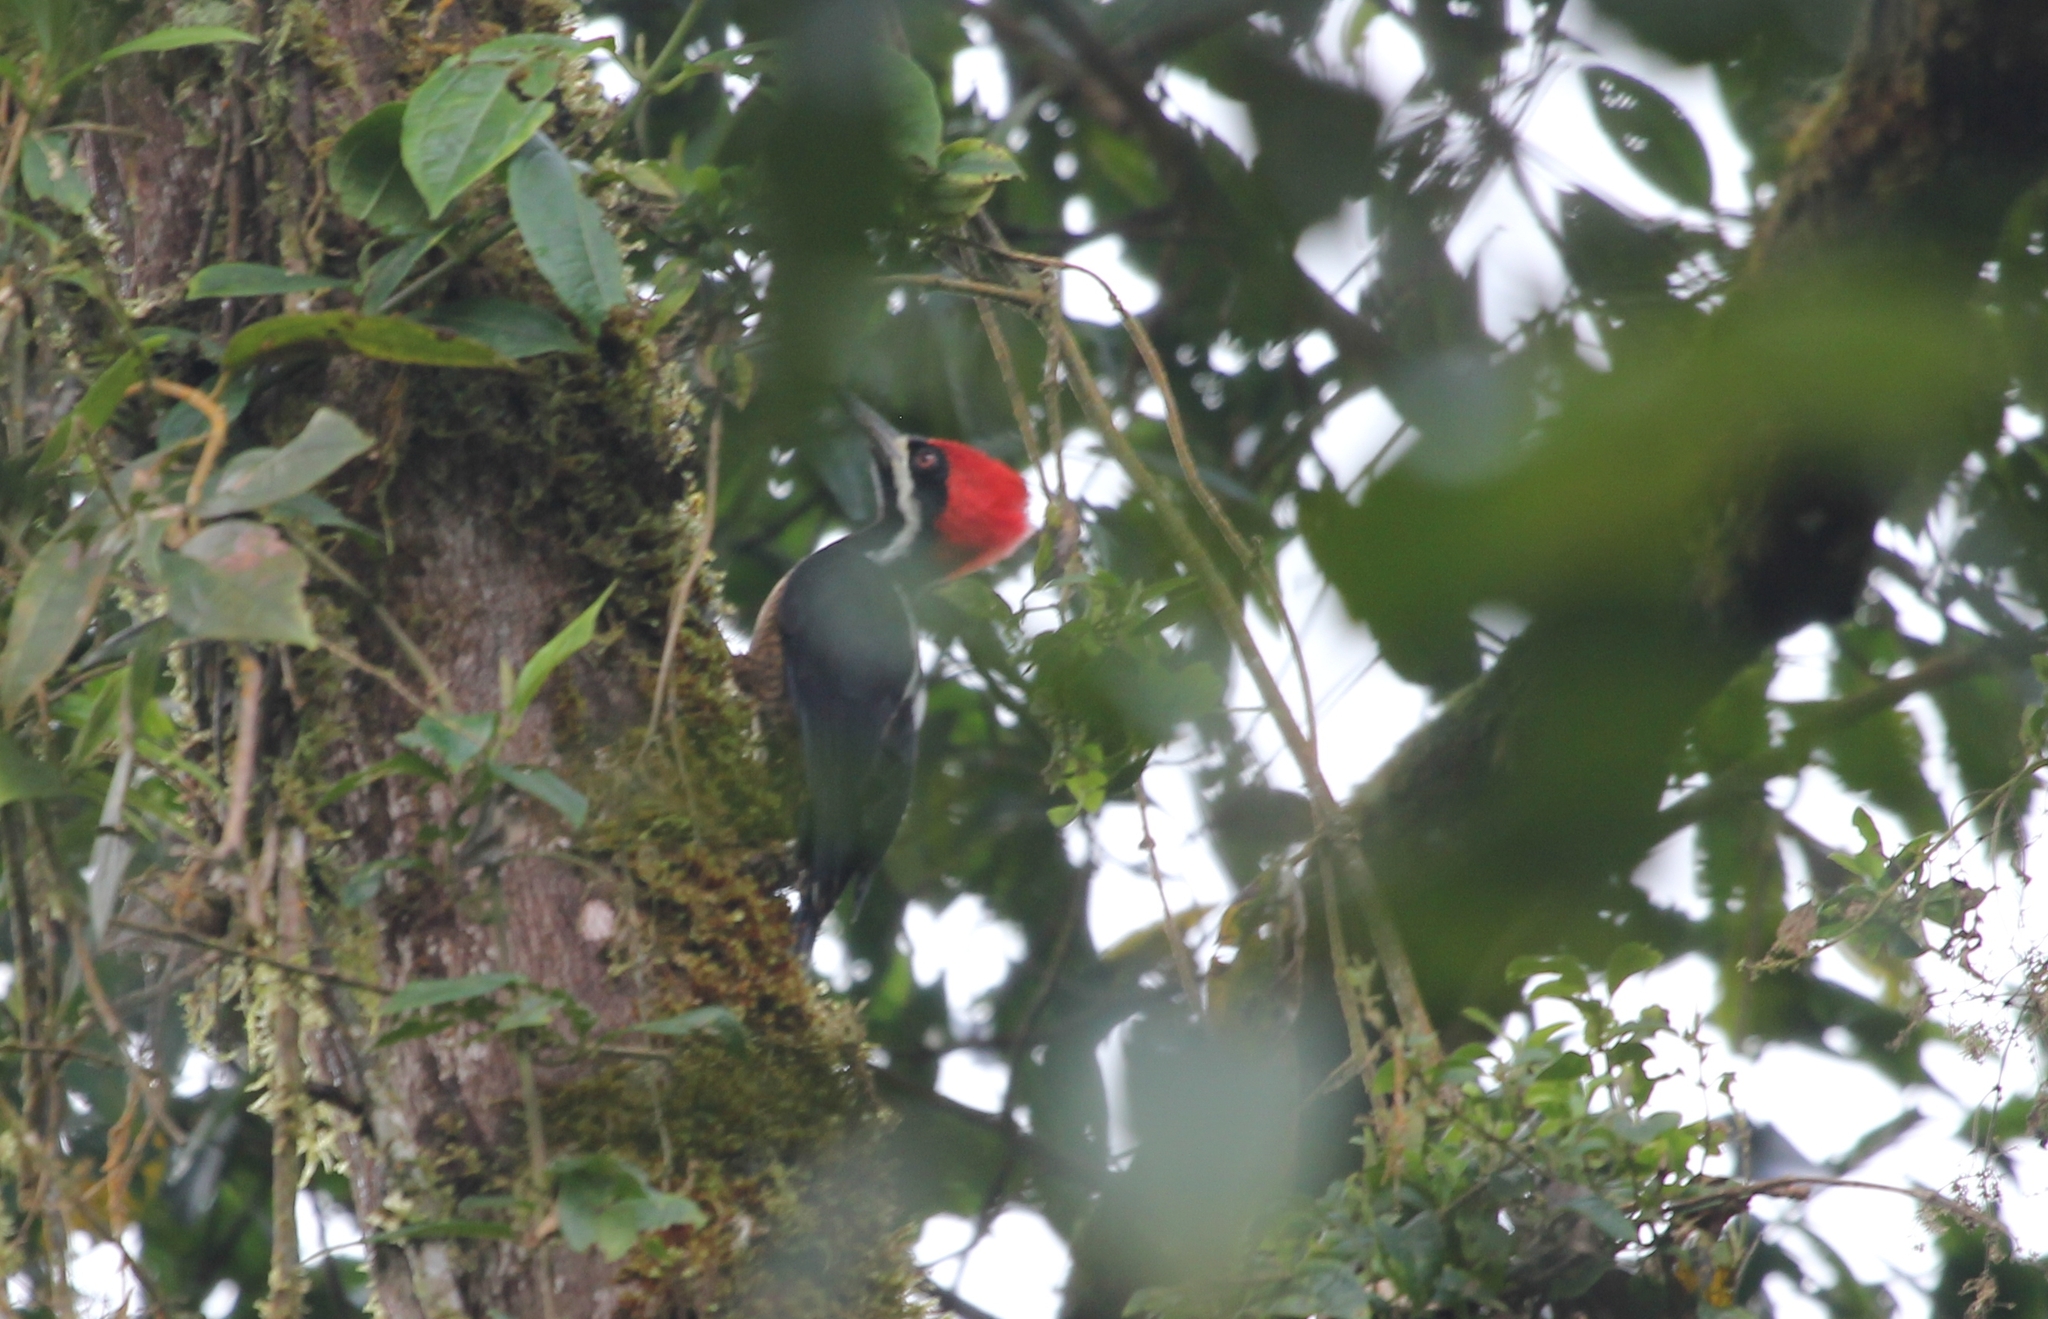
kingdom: Animalia
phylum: Chordata
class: Aves
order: Piciformes
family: Picidae
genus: Campephilus
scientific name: Campephilus pollens
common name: Powerful woodpecker
